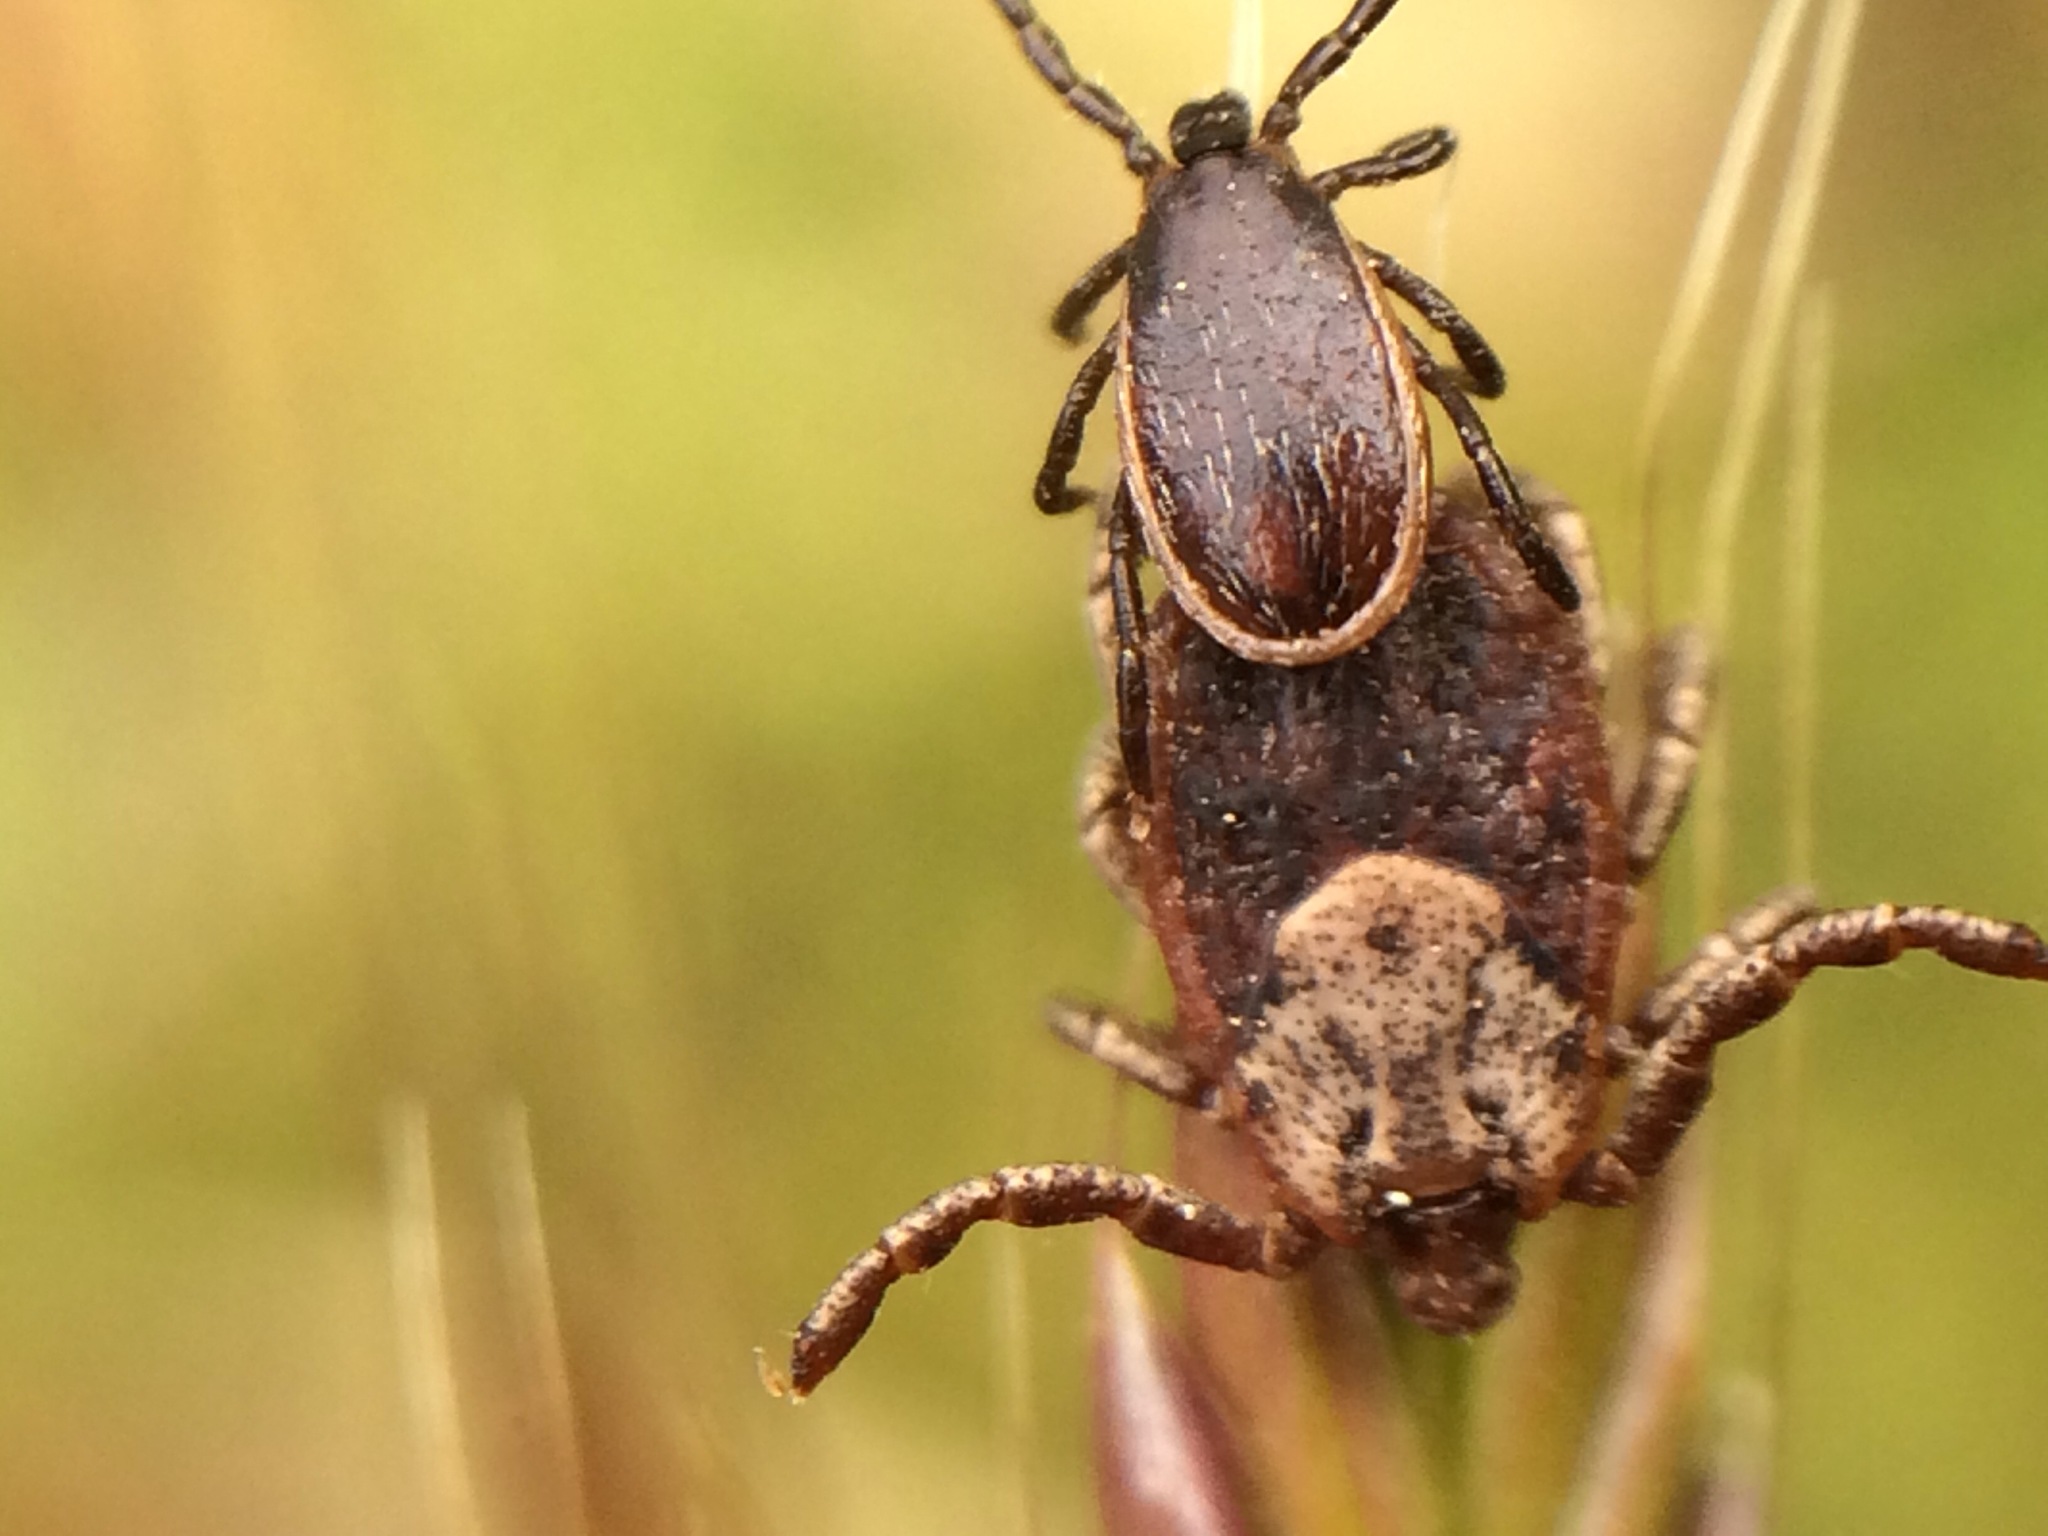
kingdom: Animalia
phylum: Arthropoda
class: Arachnida
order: Ixodida
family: Ixodidae
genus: Ixodes
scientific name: Ixodes pacificus
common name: California black-legged tick
